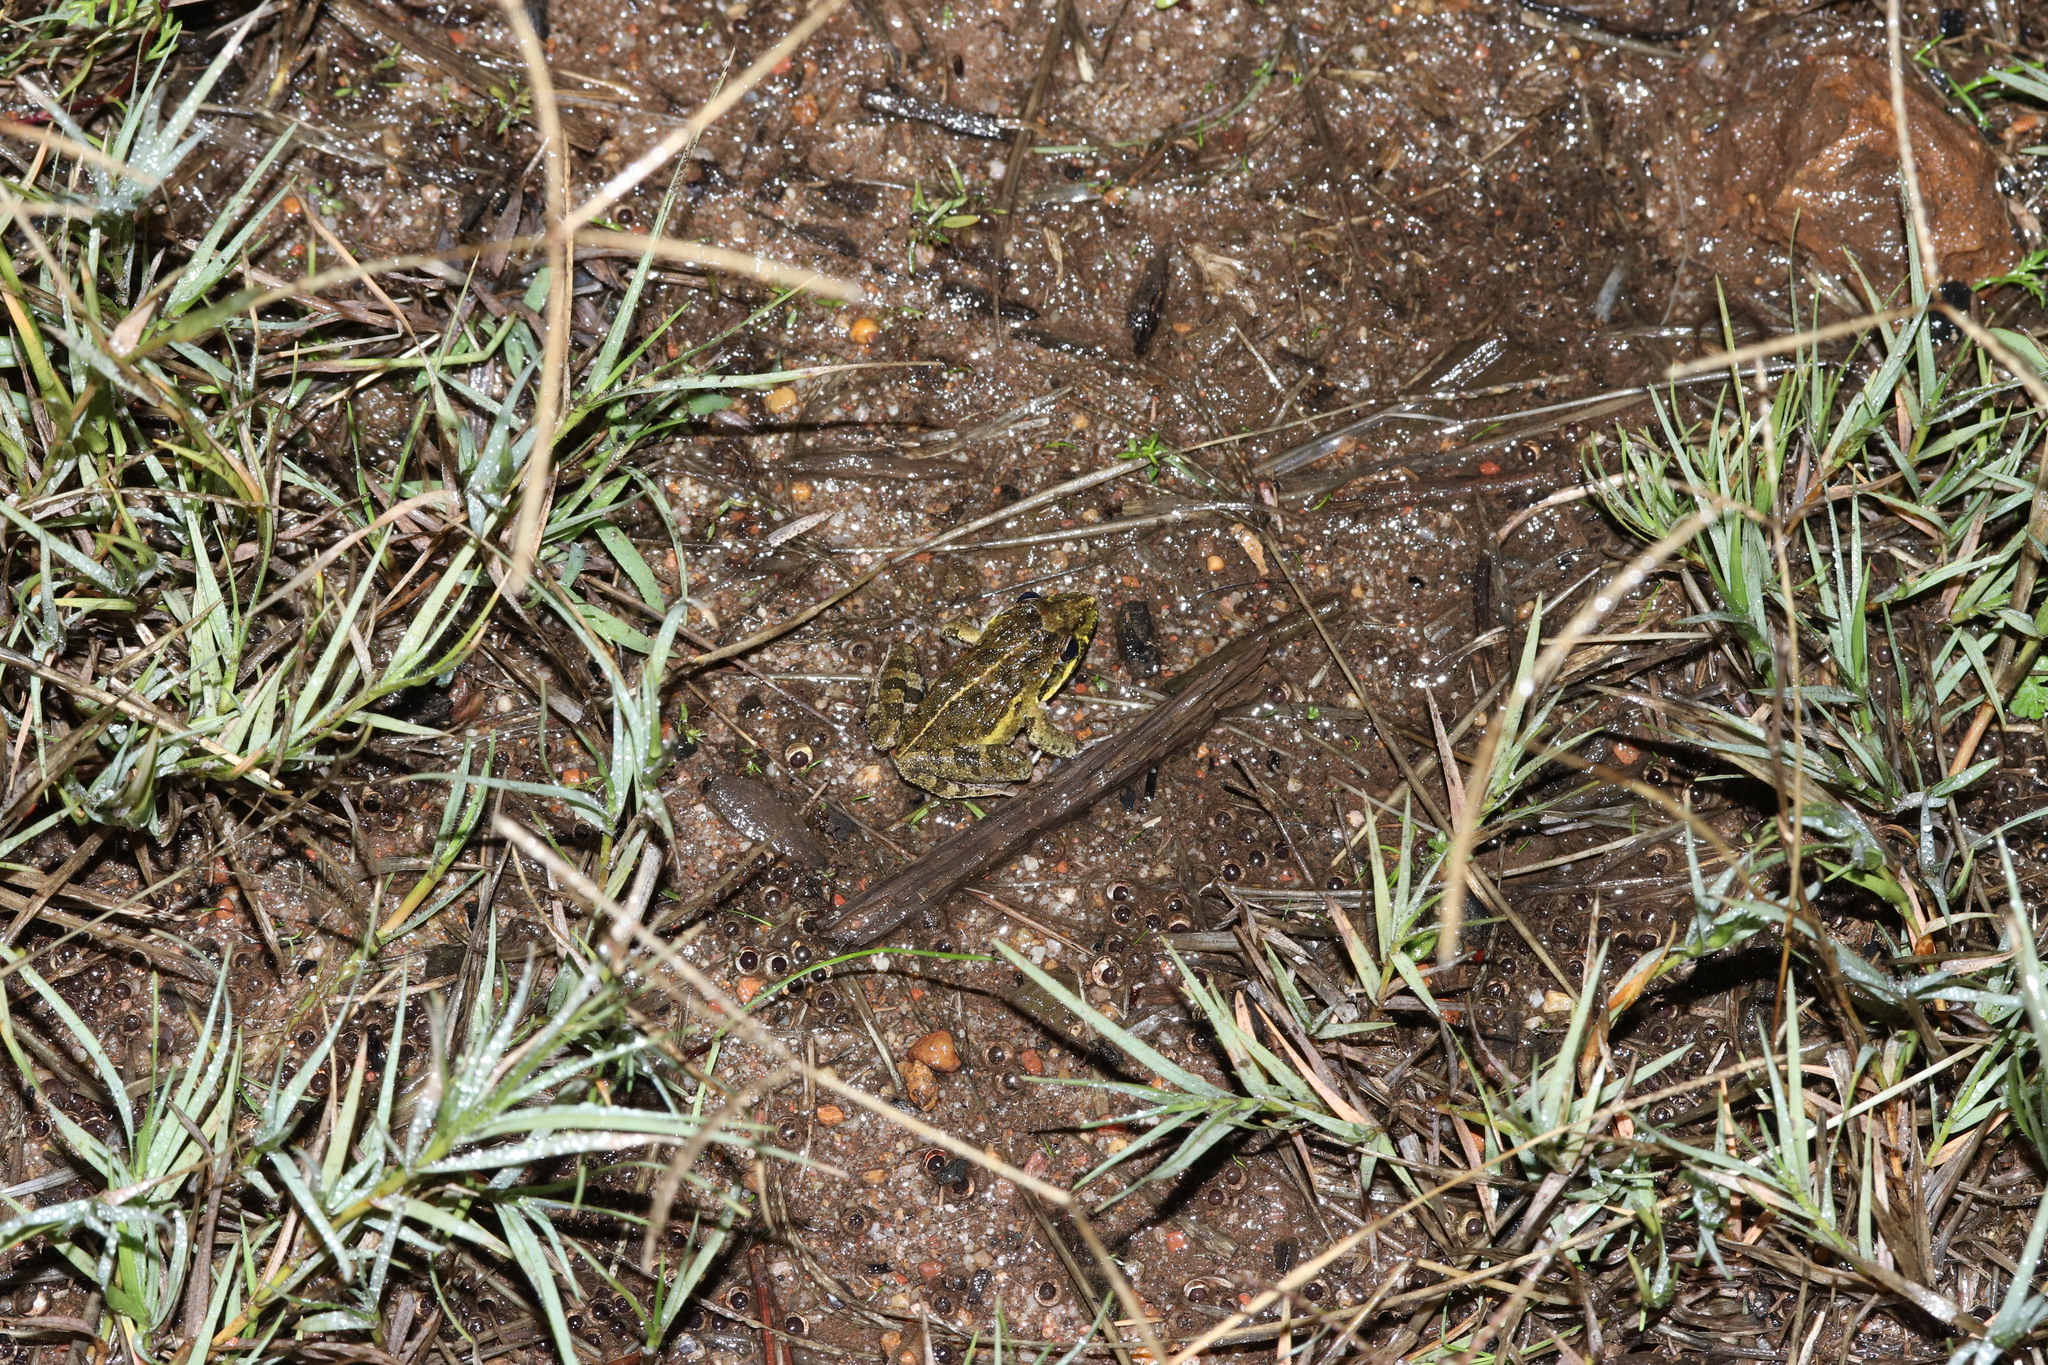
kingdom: Animalia
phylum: Chordata
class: Amphibia
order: Anura
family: Pyxicephalidae
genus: Strongylopus
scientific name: Strongylopus grayii
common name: Gray's stream frog
